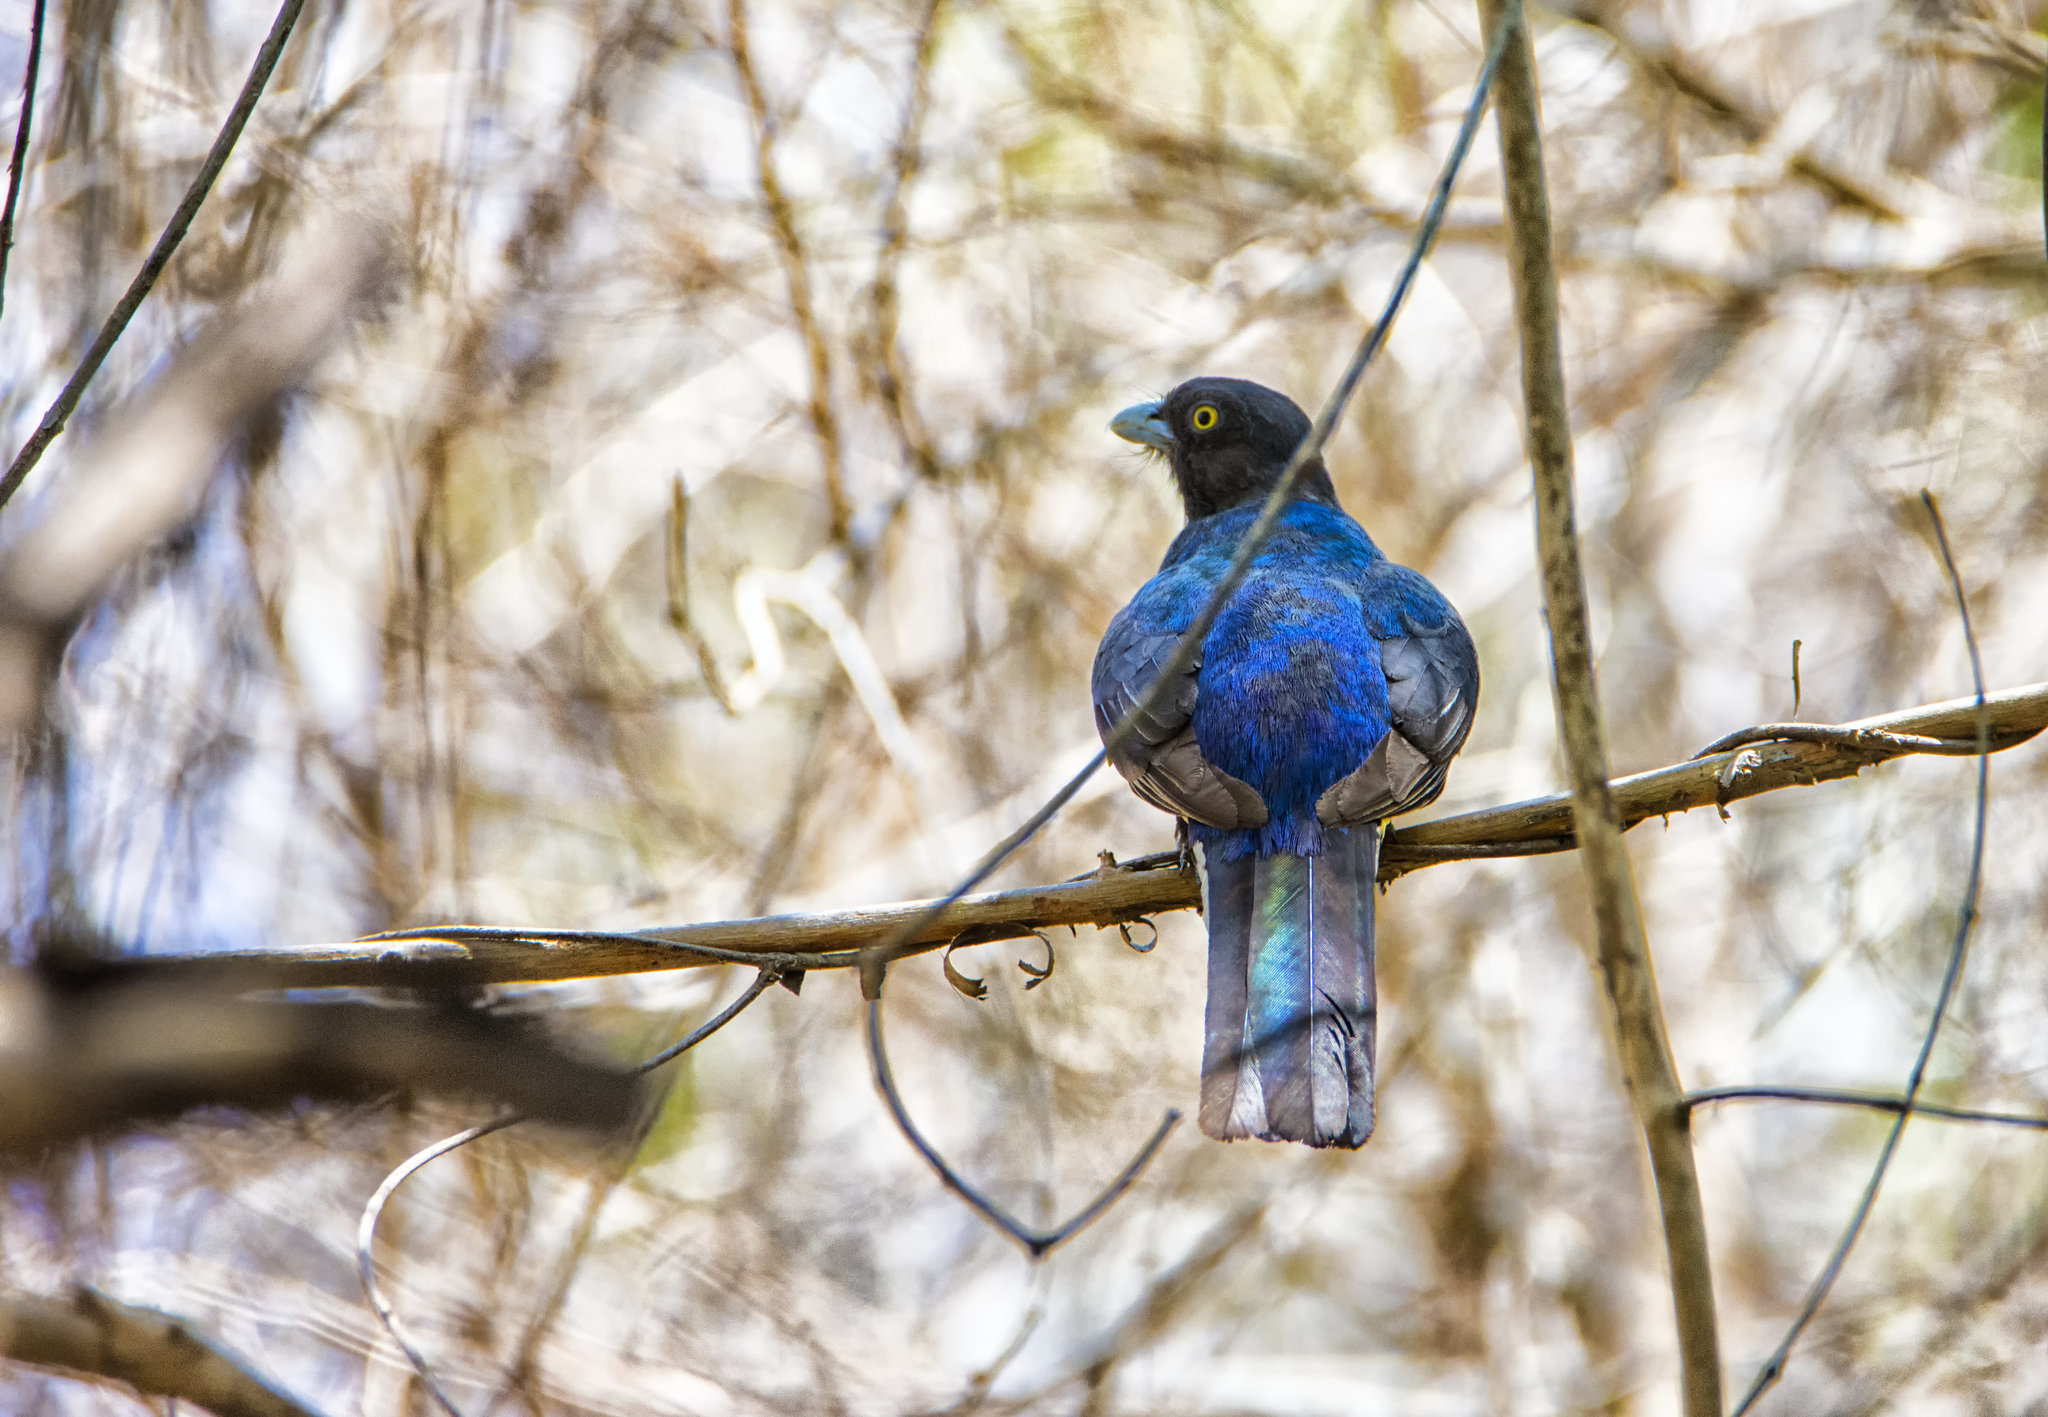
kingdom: Animalia
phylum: Chordata
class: Aves
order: Trogoniformes
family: Trogonidae
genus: Trogon
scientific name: Trogon citreolus
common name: Citreoline trogon
